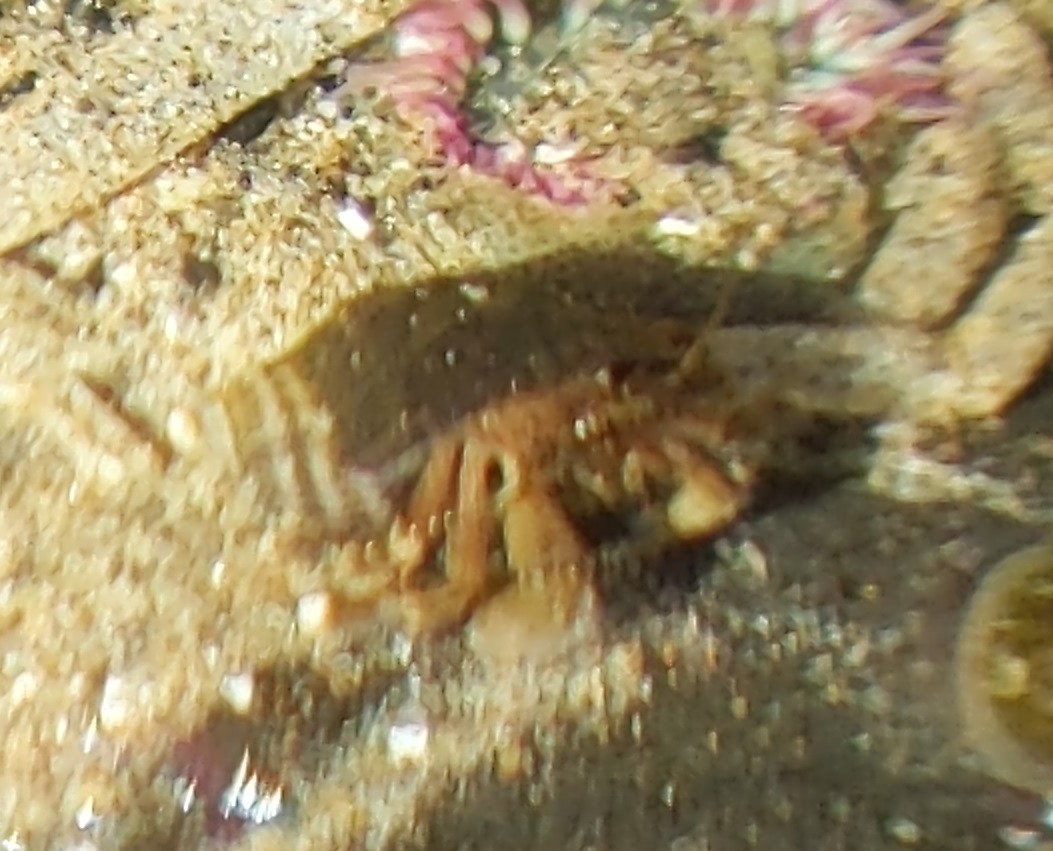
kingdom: Animalia
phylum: Arthropoda
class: Malacostraca
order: Decapoda
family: Paguridae
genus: Pagurus
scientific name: Pagurus hirsutiusculus
